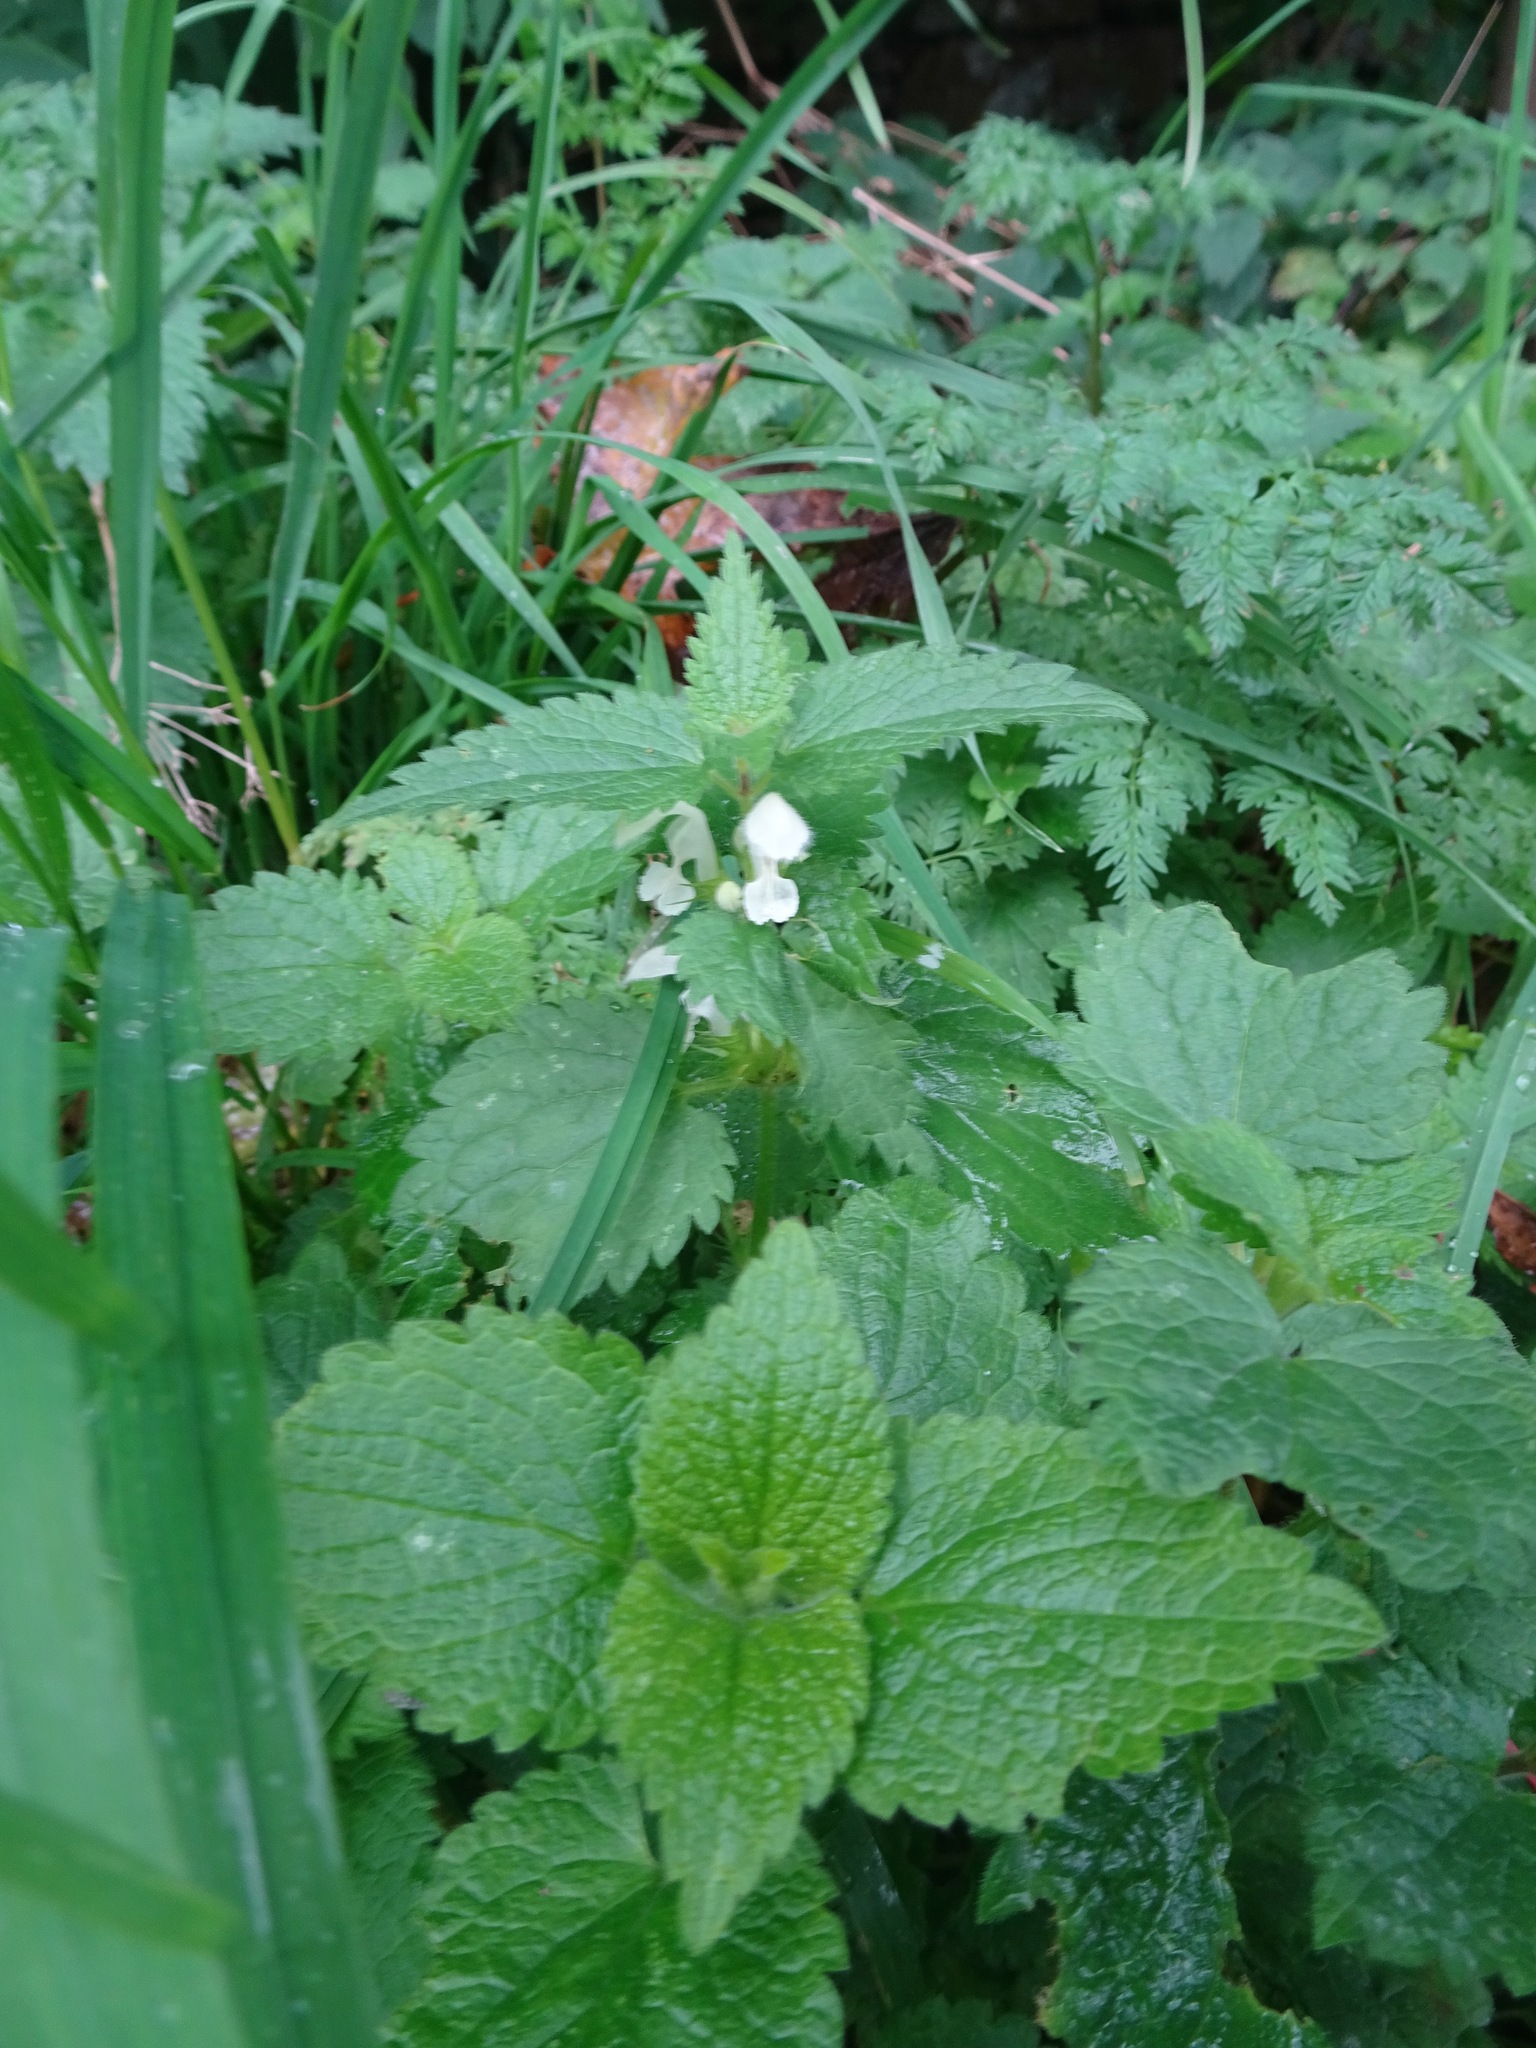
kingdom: Plantae
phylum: Tracheophyta
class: Magnoliopsida
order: Lamiales
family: Lamiaceae
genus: Lamium
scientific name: Lamium album
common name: White dead-nettle
